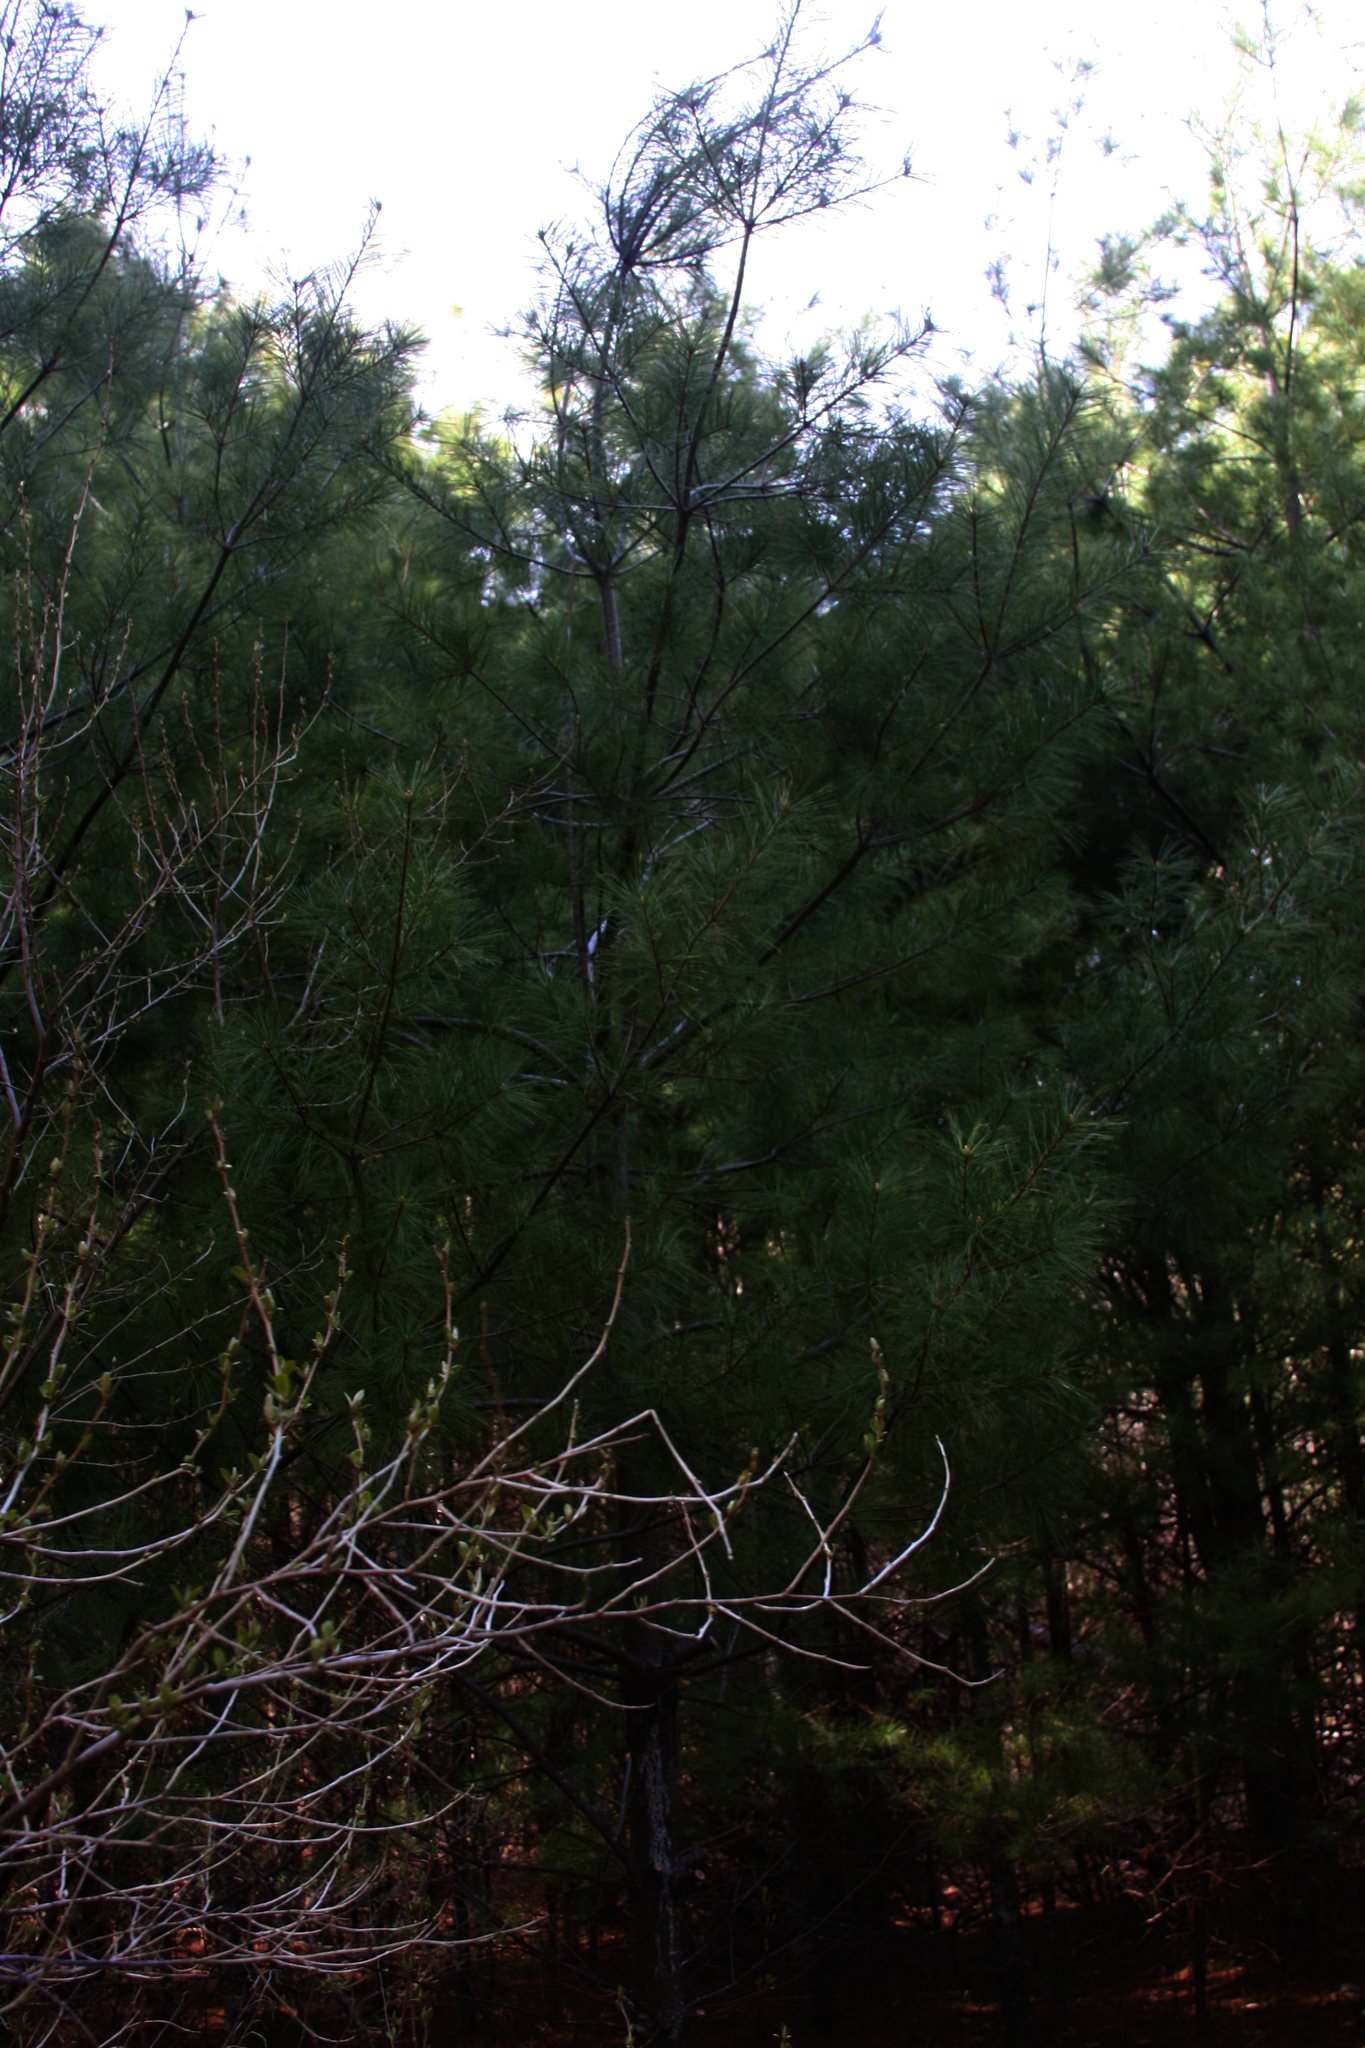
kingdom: Plantae
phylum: Tracheophyta
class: Pinopsida
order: Pinales
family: Pinaceae
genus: Pinus
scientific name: Pinus strobus
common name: Weymouth pine
